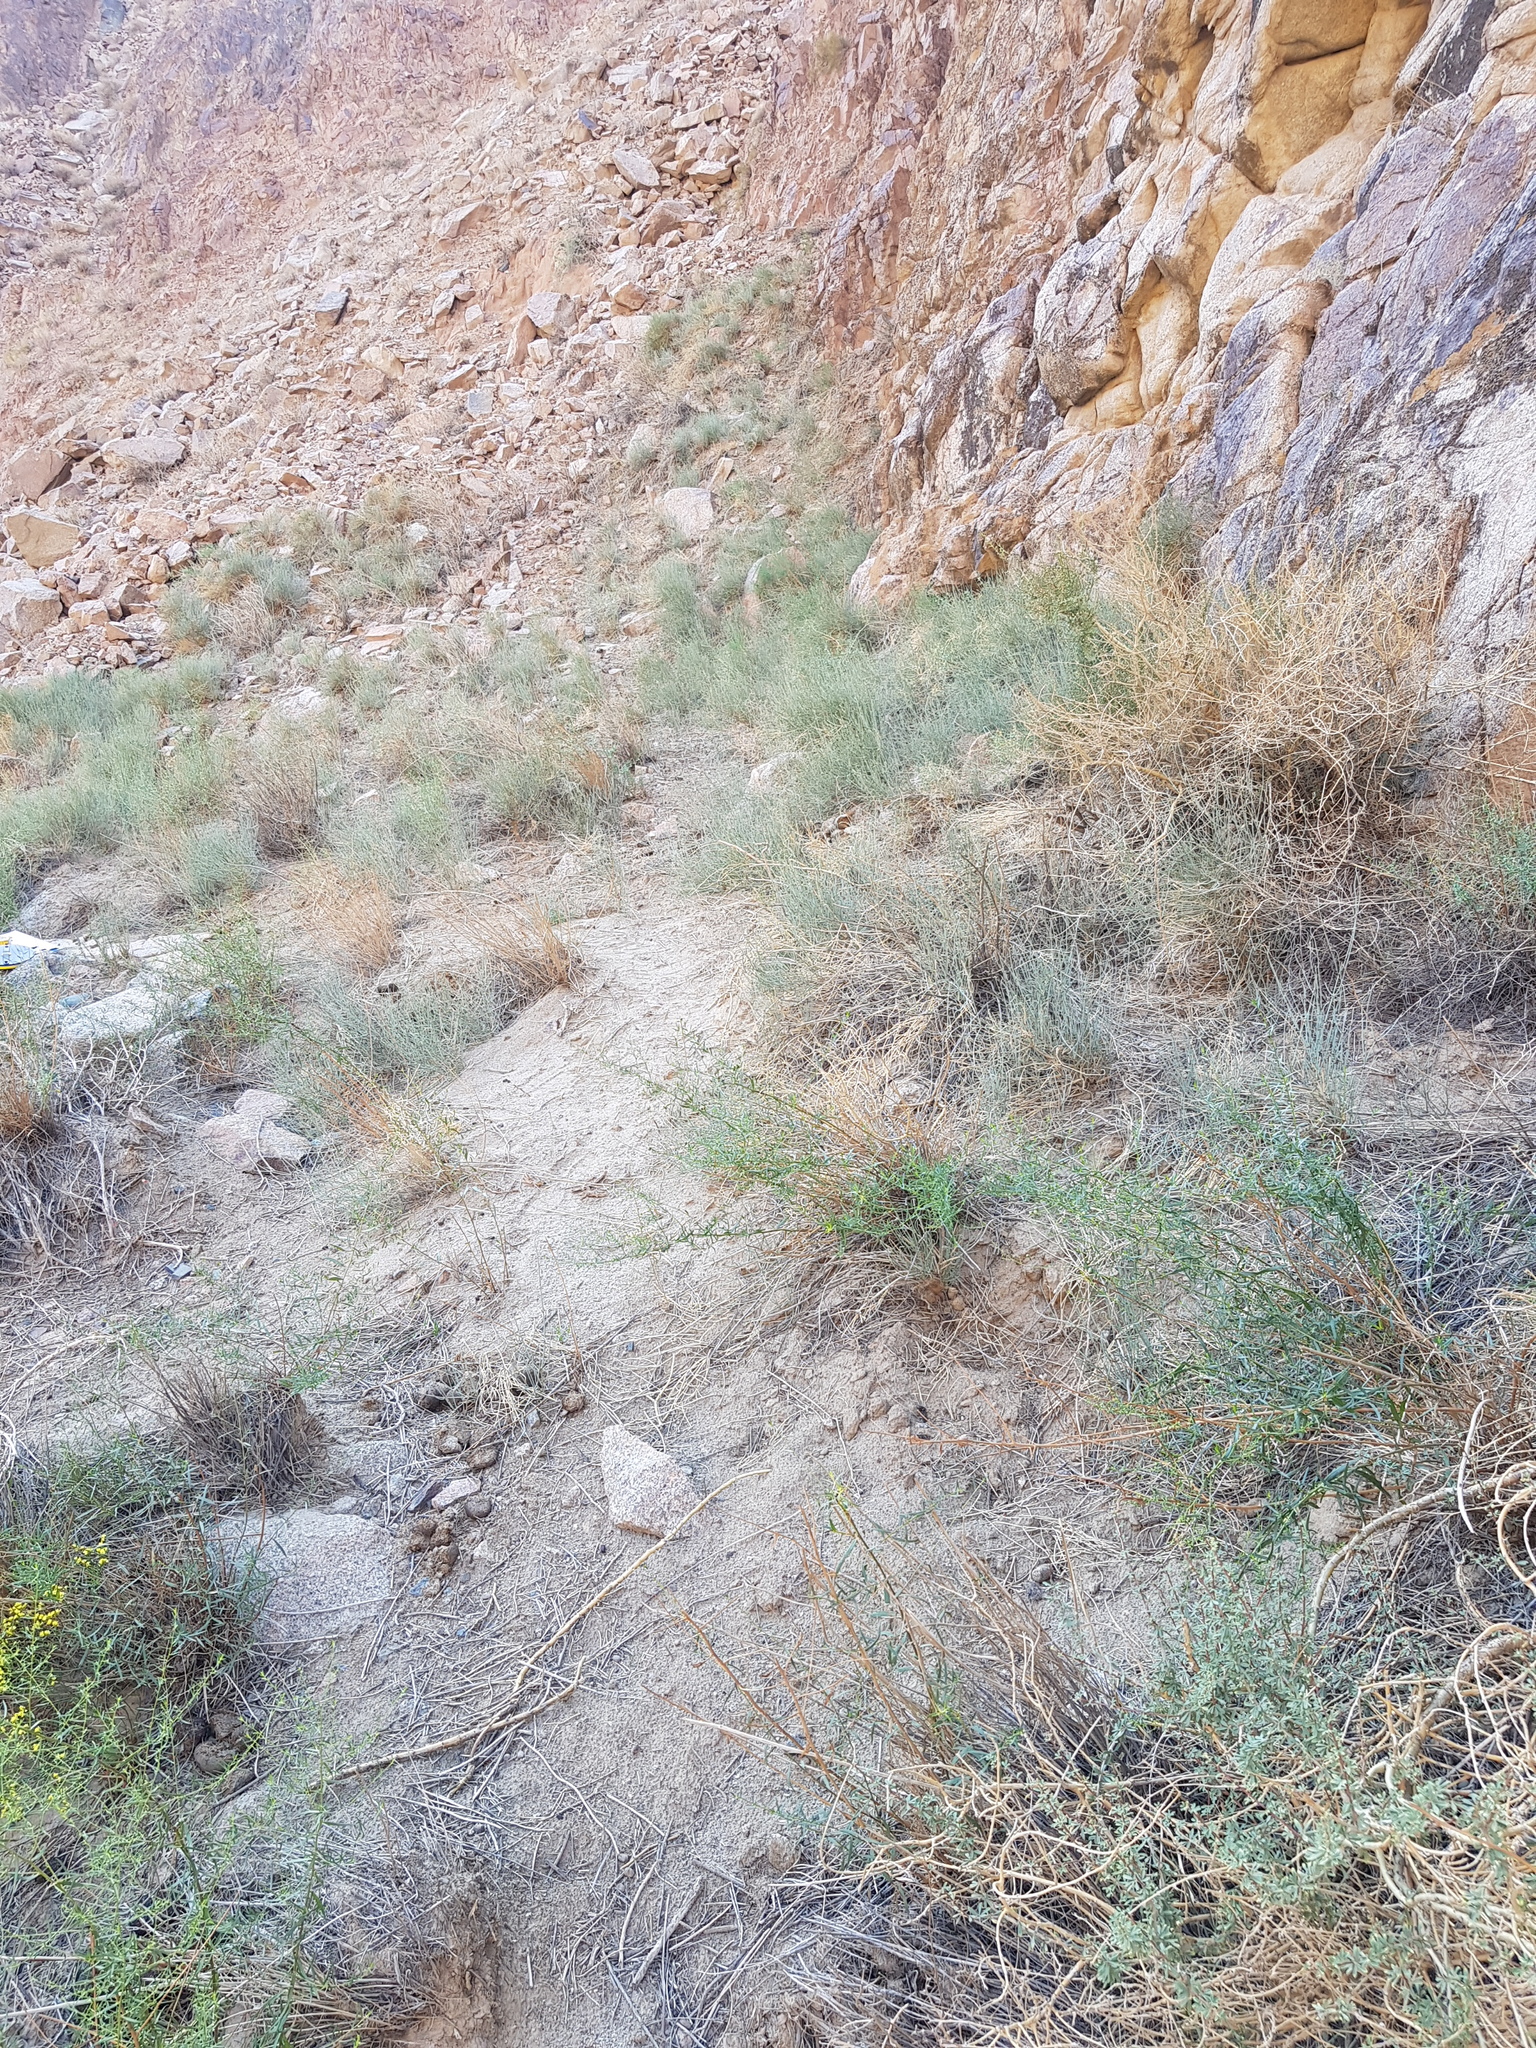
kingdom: Plantae
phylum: Tracheophyta
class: Gnetopsida
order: Ephedrales
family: Ephedraceae
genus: Ephedra
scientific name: Ephedra equisetina
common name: Mongolian ephedra
